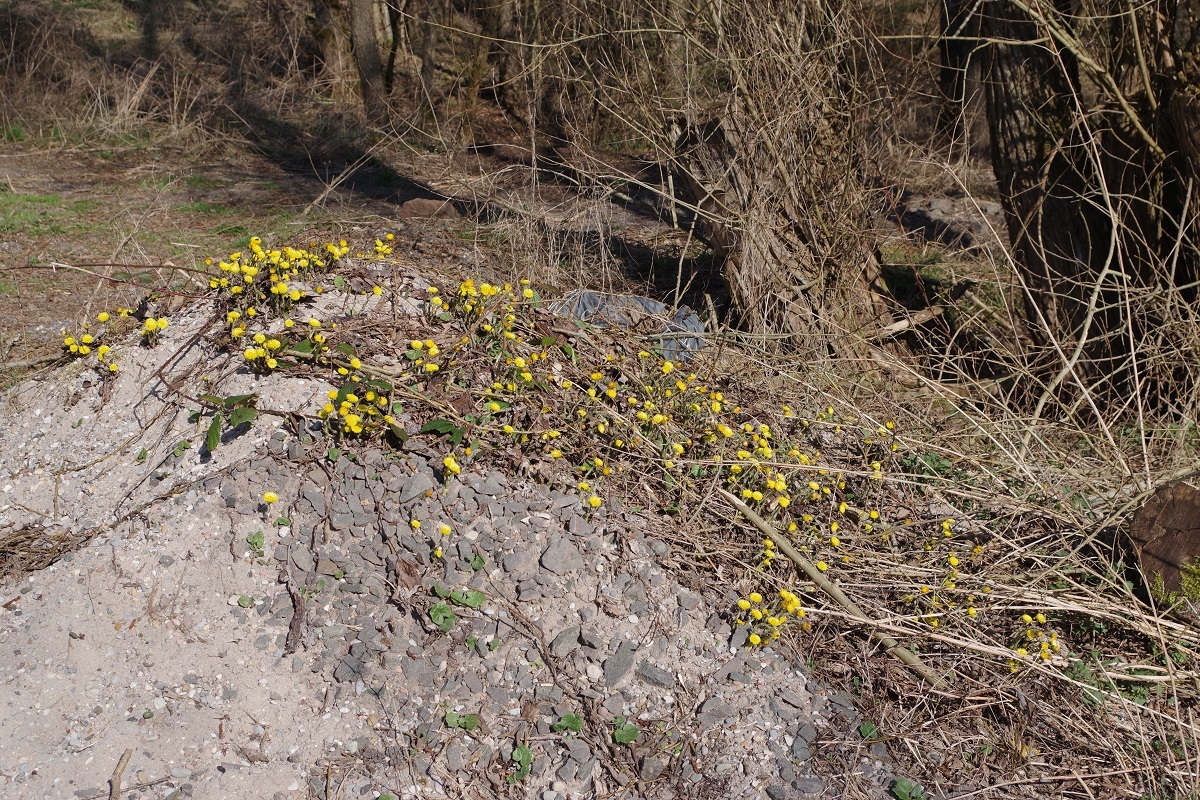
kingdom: Plantae
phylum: Tracheophyta
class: Magnoliopsida
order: Asterales
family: Asteraceae
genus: Tussilago
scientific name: Tussilago farfara
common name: Coltsfoot
